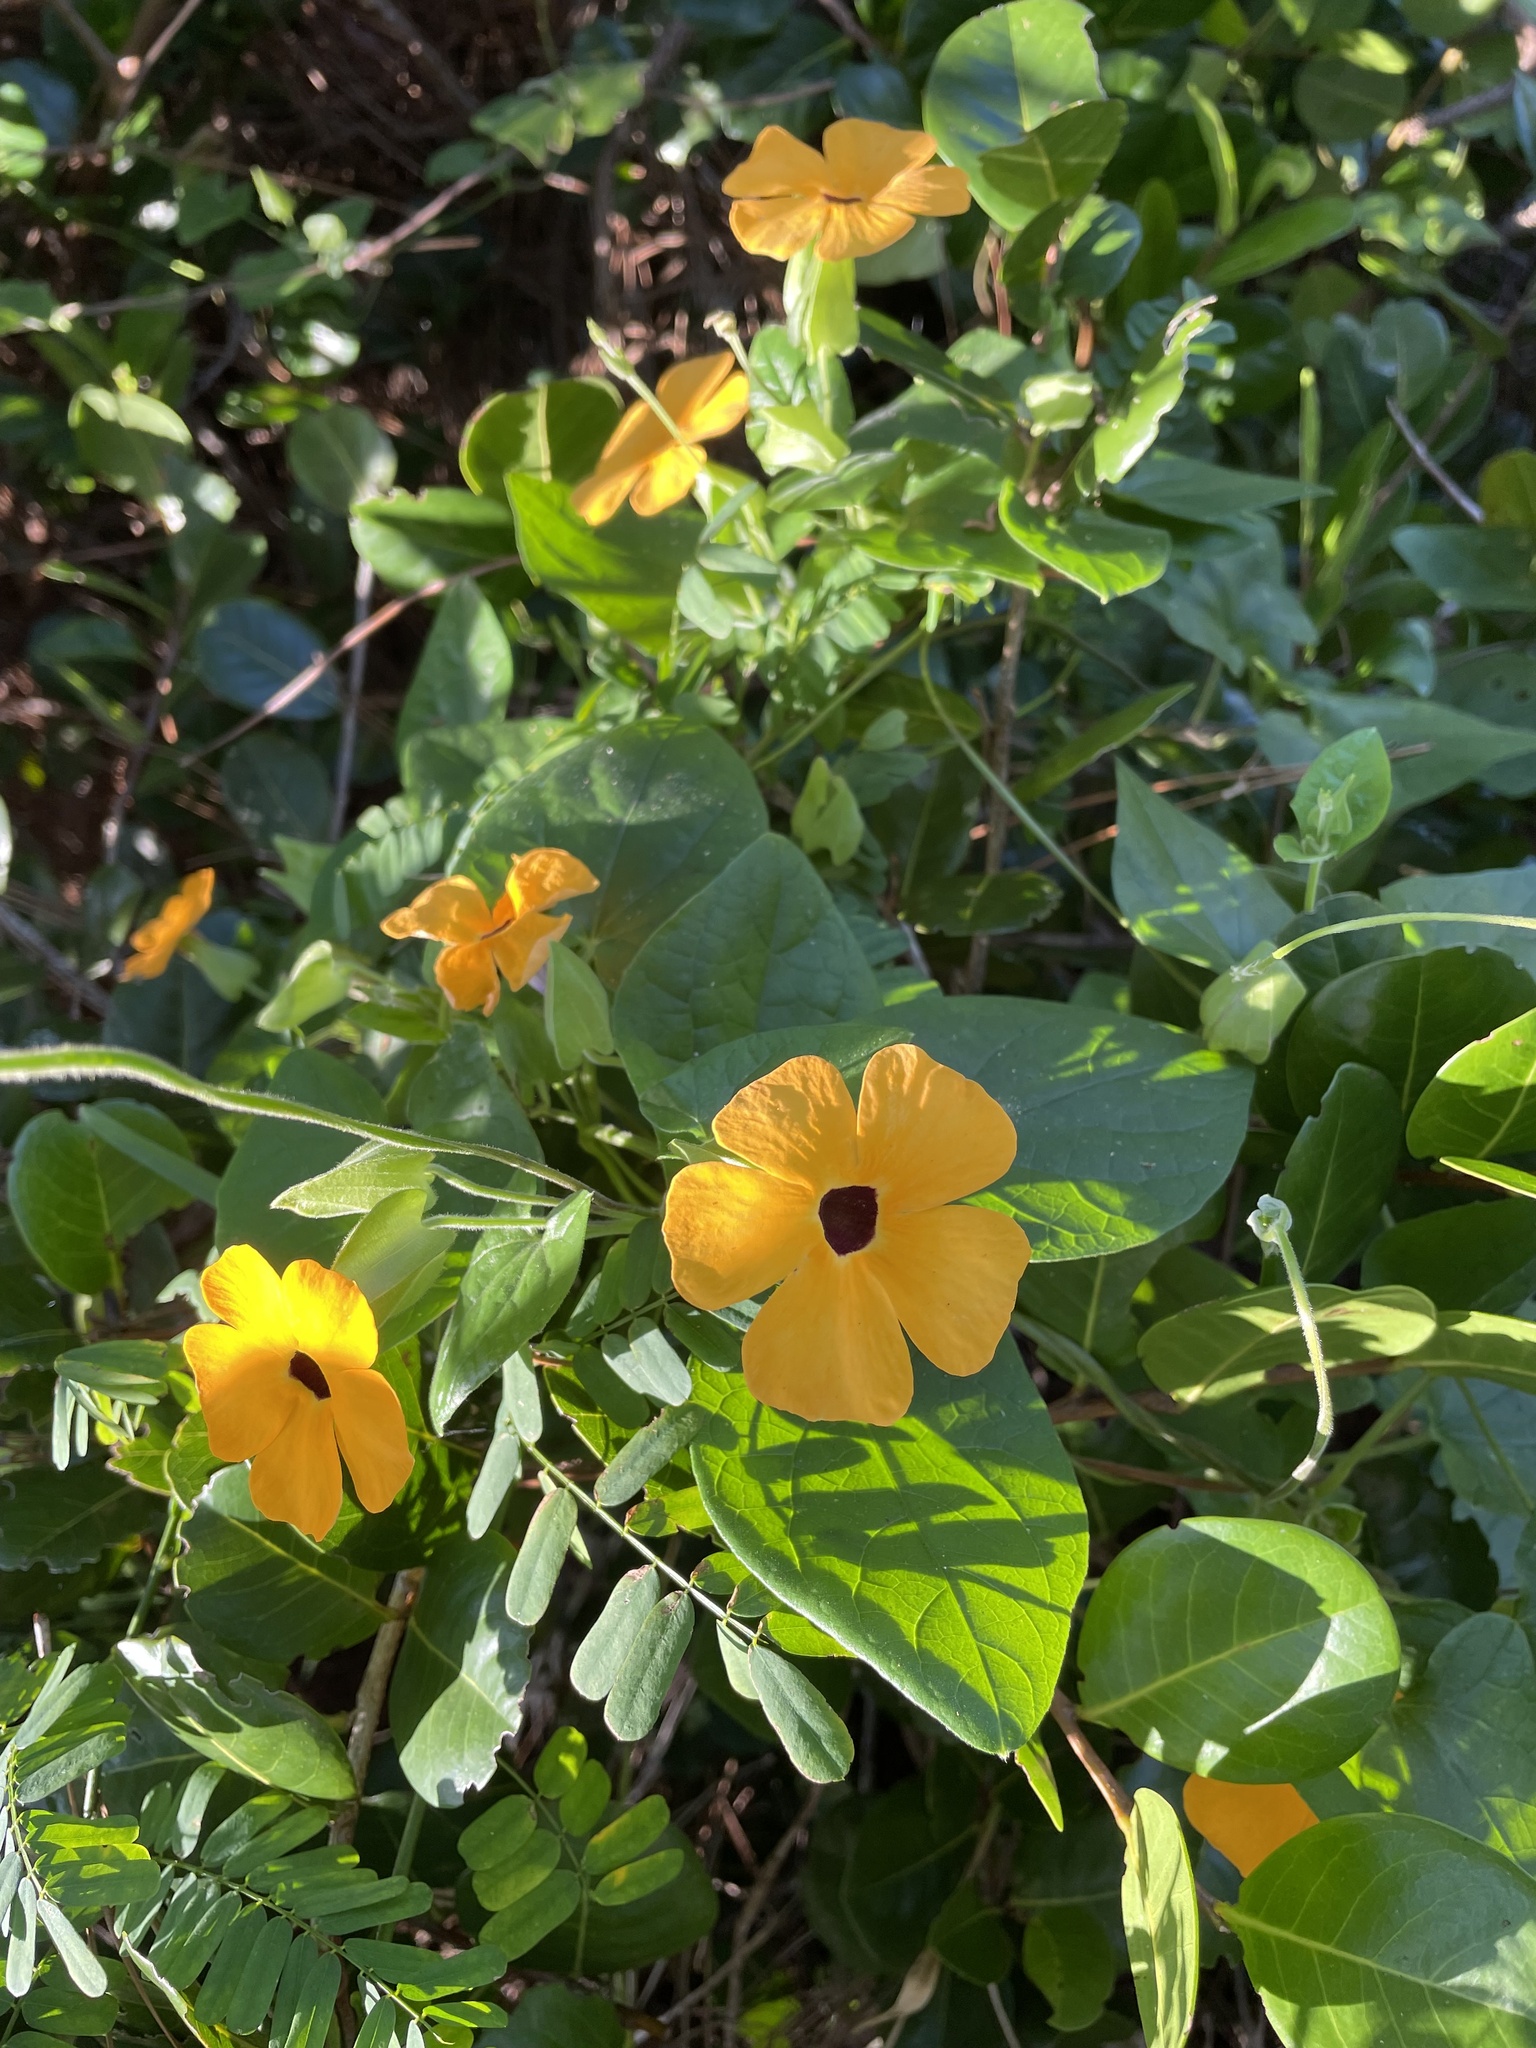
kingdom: Plantae
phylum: Tracheophyta
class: Magnoliopsida
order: Lamiales
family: Acanthaceae
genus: Thunbergia
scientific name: Thunbergia alata
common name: Blackeyed susan vine
